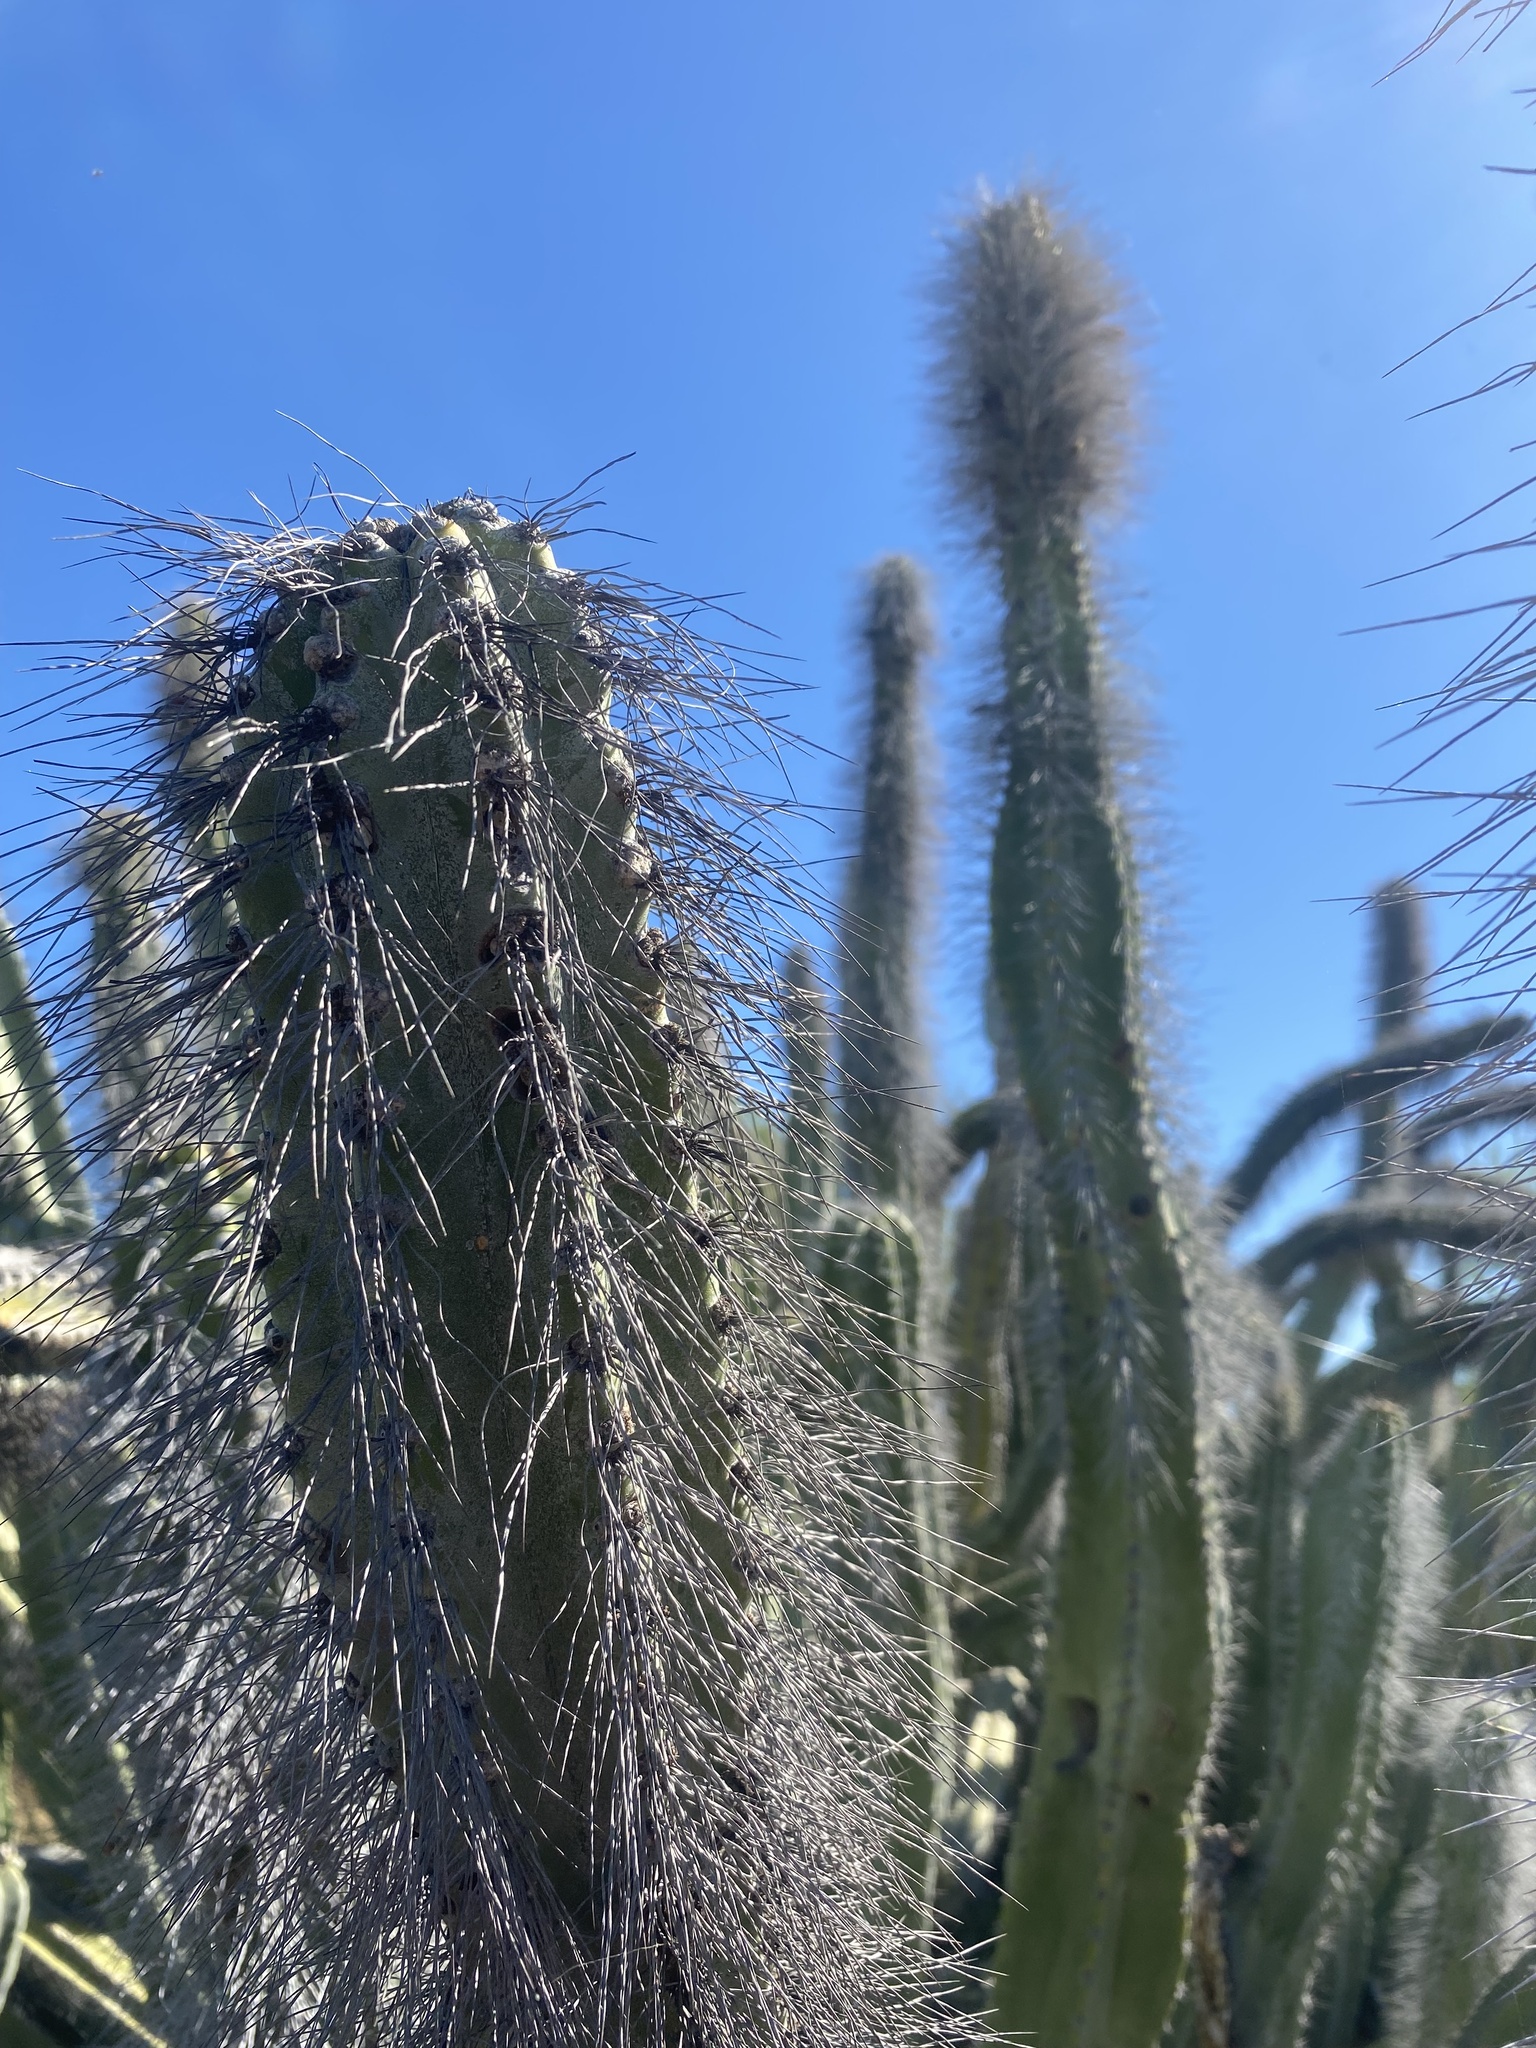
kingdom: Plantae
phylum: Tracheophyta
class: Magnoliopsida
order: Caryophyllales
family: Cactaceae
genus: Pachycereus
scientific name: Pachycereus schottii
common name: Senita cactus
